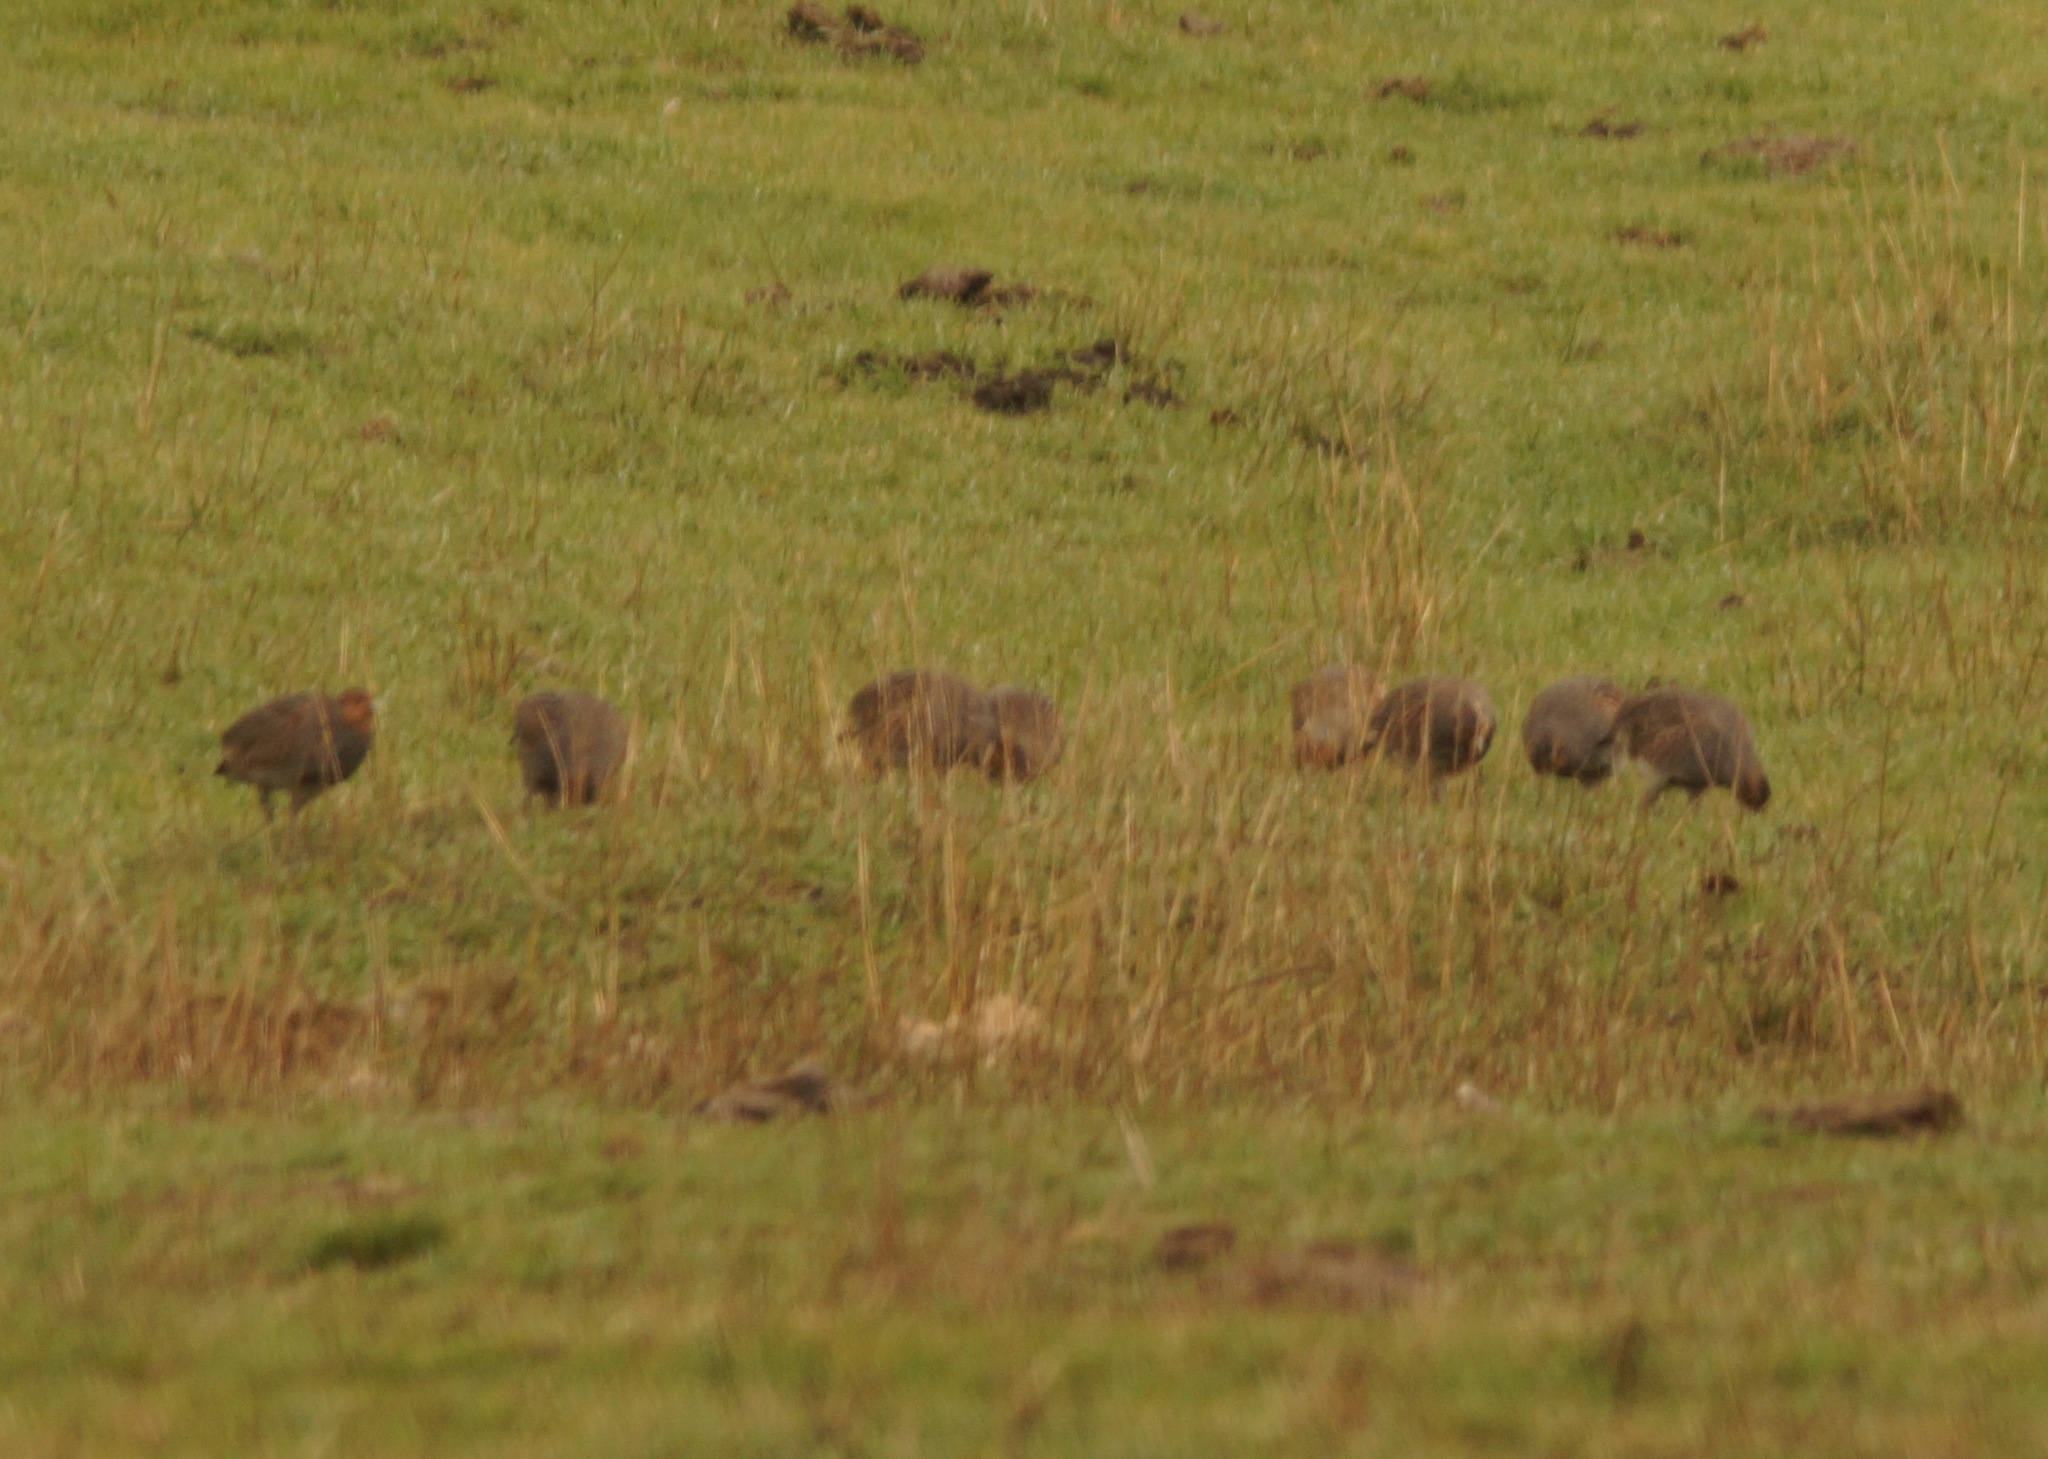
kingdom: Animalia
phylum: Chordata
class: Aves
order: Galliformes
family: Phasianidae
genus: Perdix
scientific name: Perdix perdix
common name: Grey partridge
